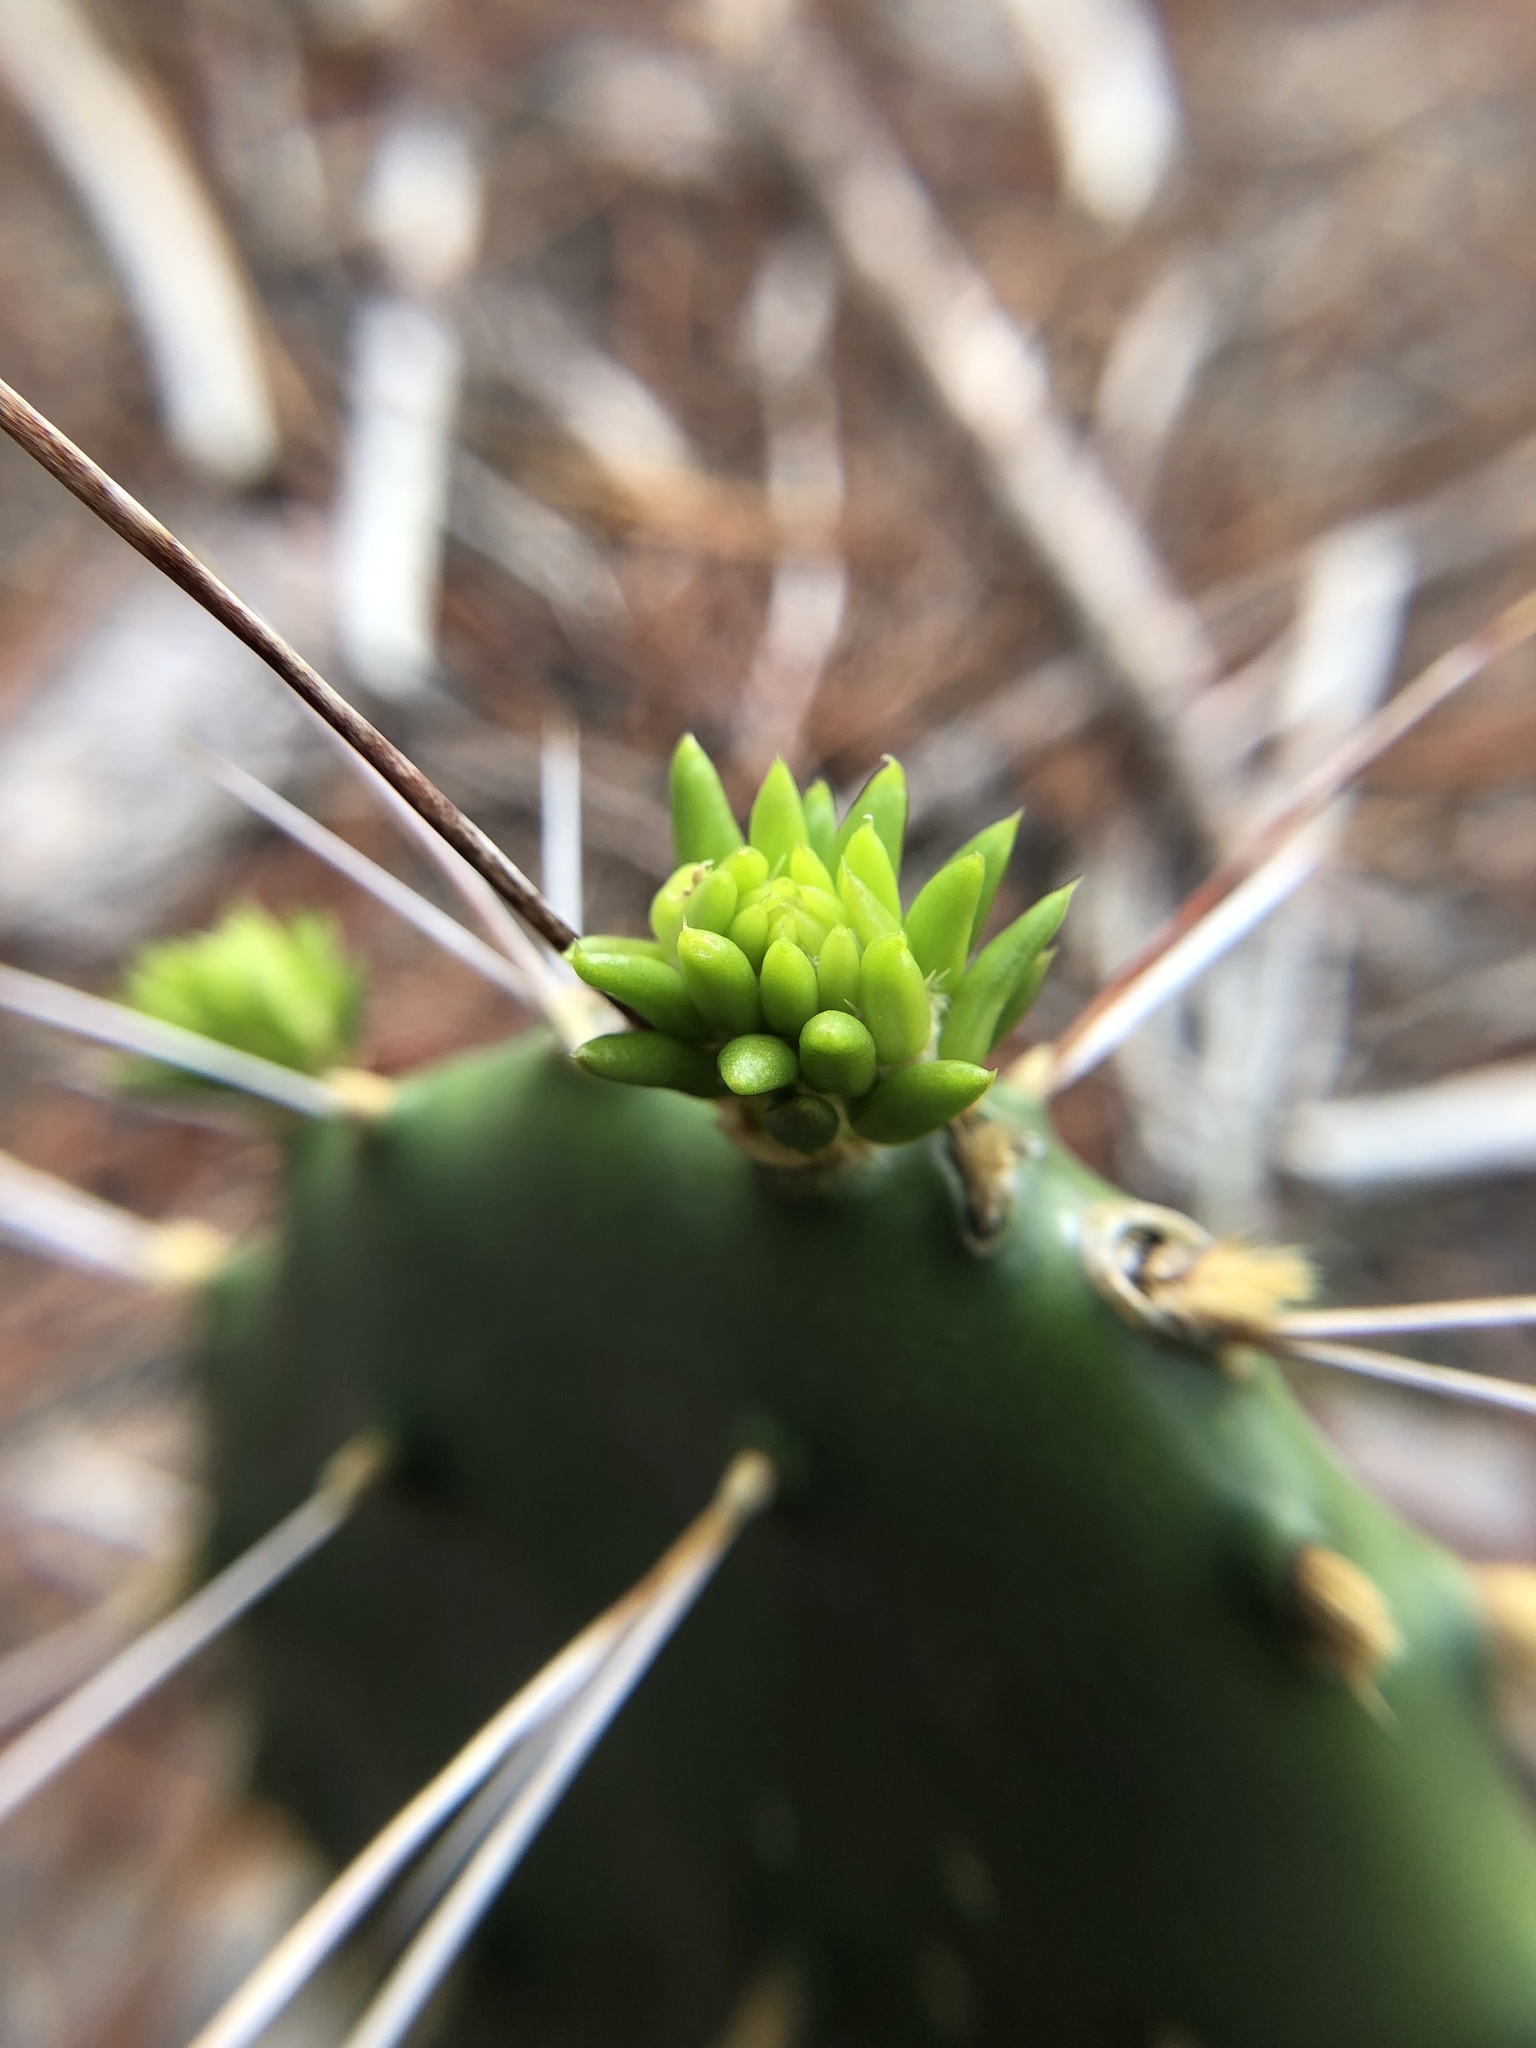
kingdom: Plantae
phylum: Tracheophyta
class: Magnoliopsida
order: Caryophyllales
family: Cactaceae
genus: Opuntia
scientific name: Opuntia austrina
